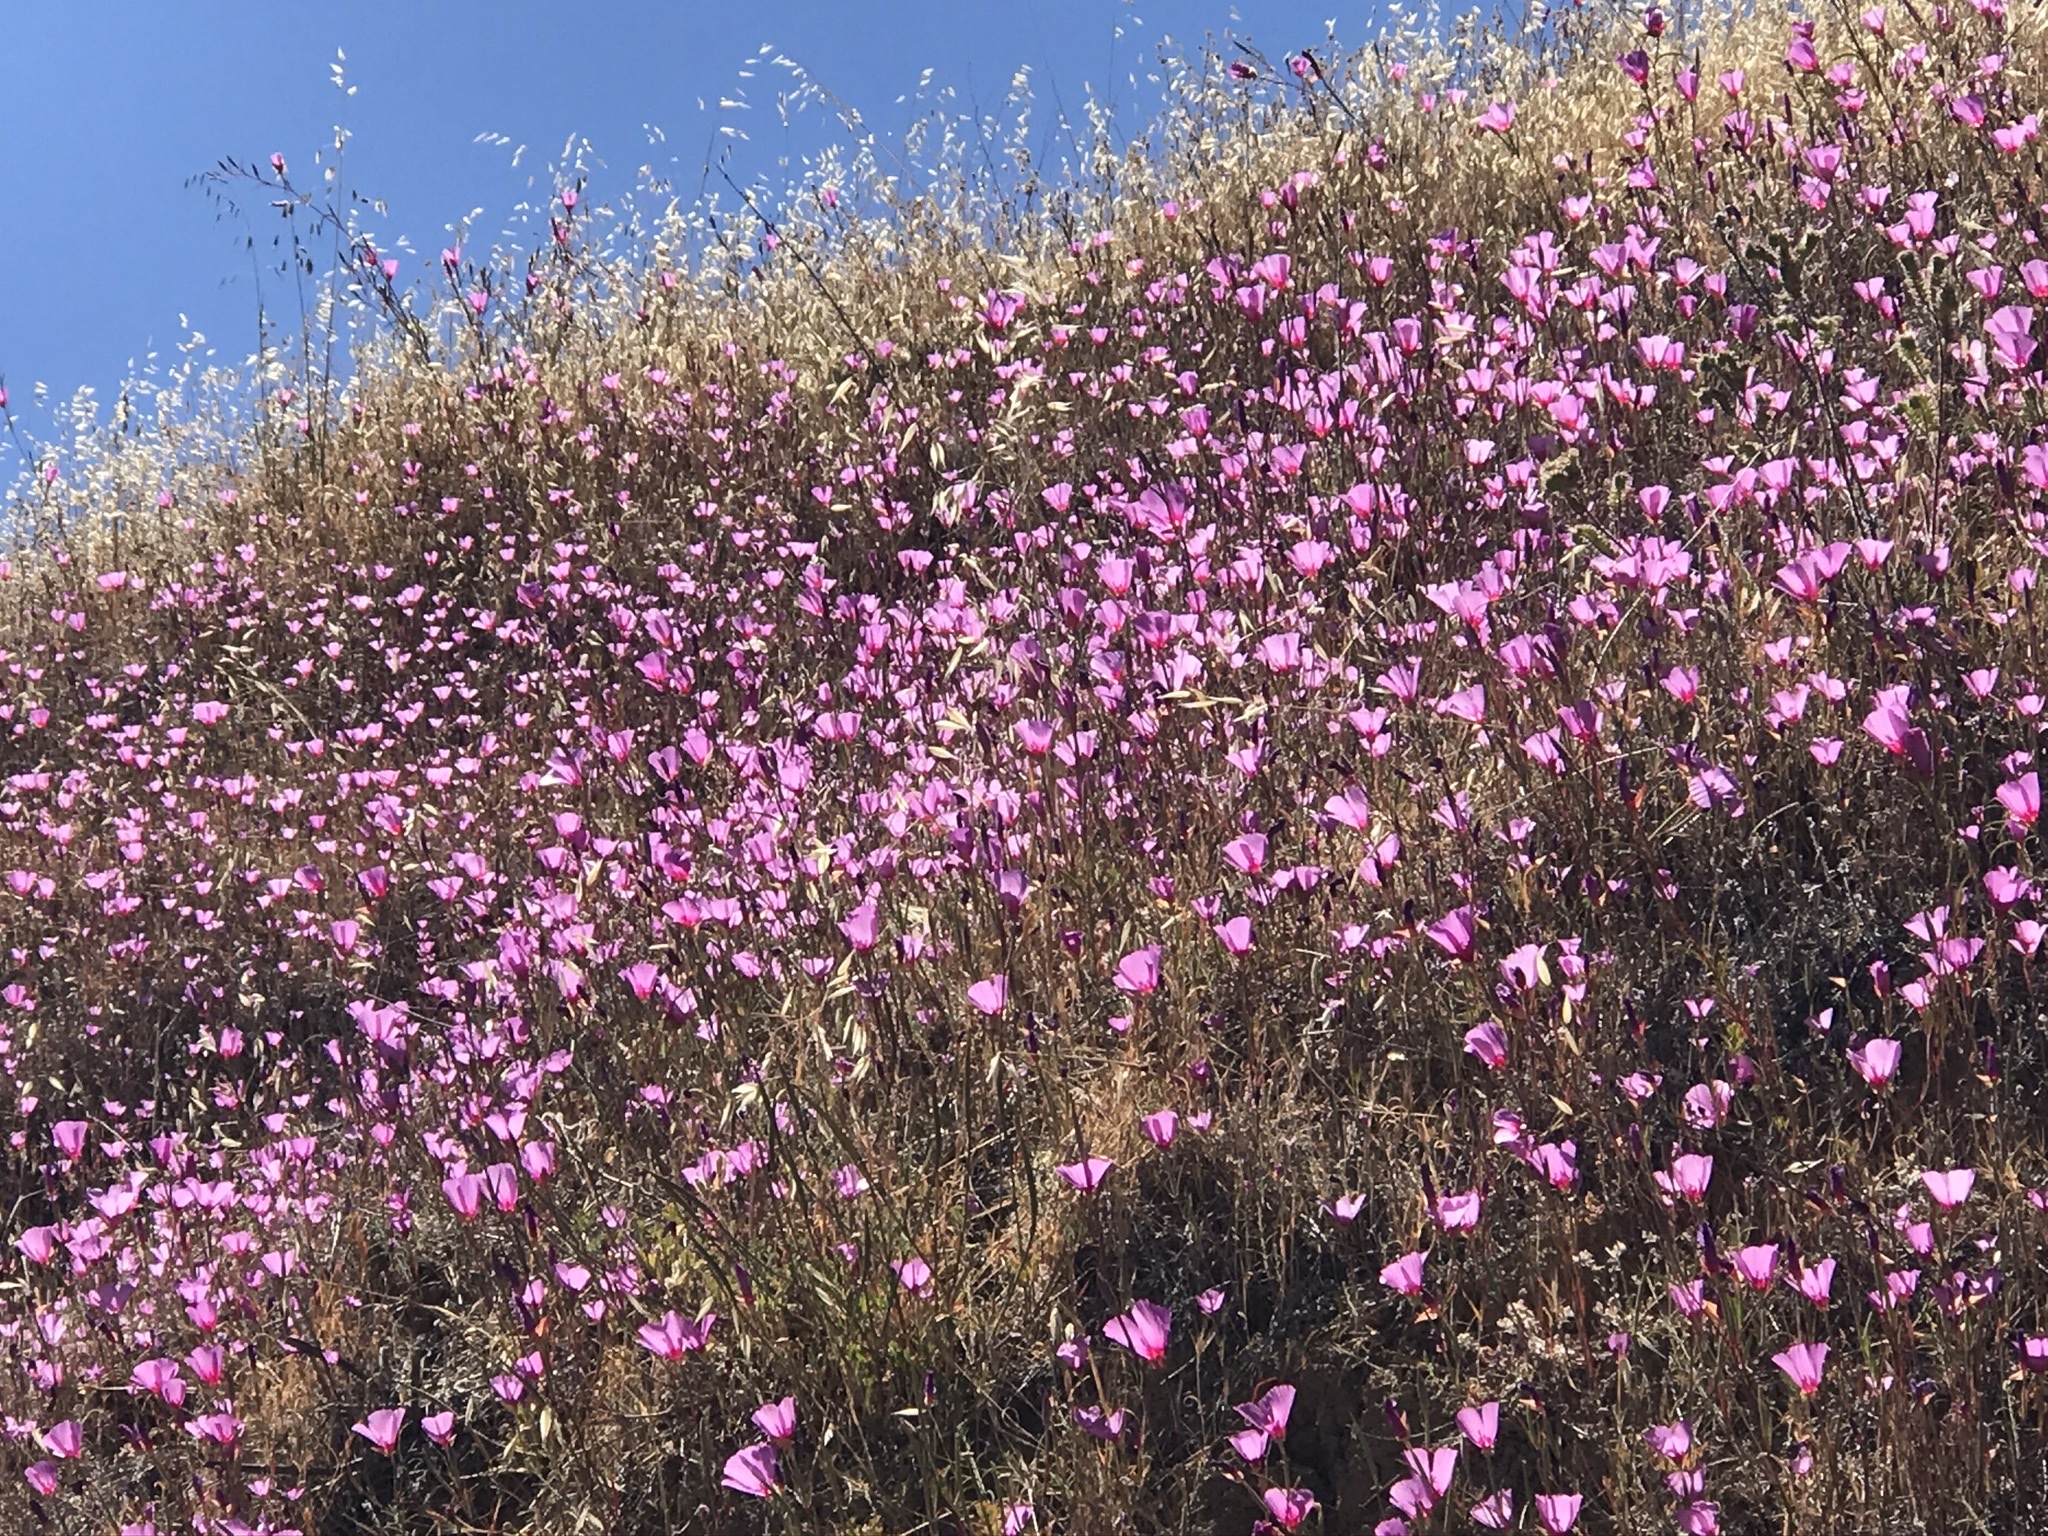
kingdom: Plantae
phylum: Tracheophyta
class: Magnoliopsida
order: Myrtales
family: Onagraceae
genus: Clarkia
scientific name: Clarkia rubicunda
